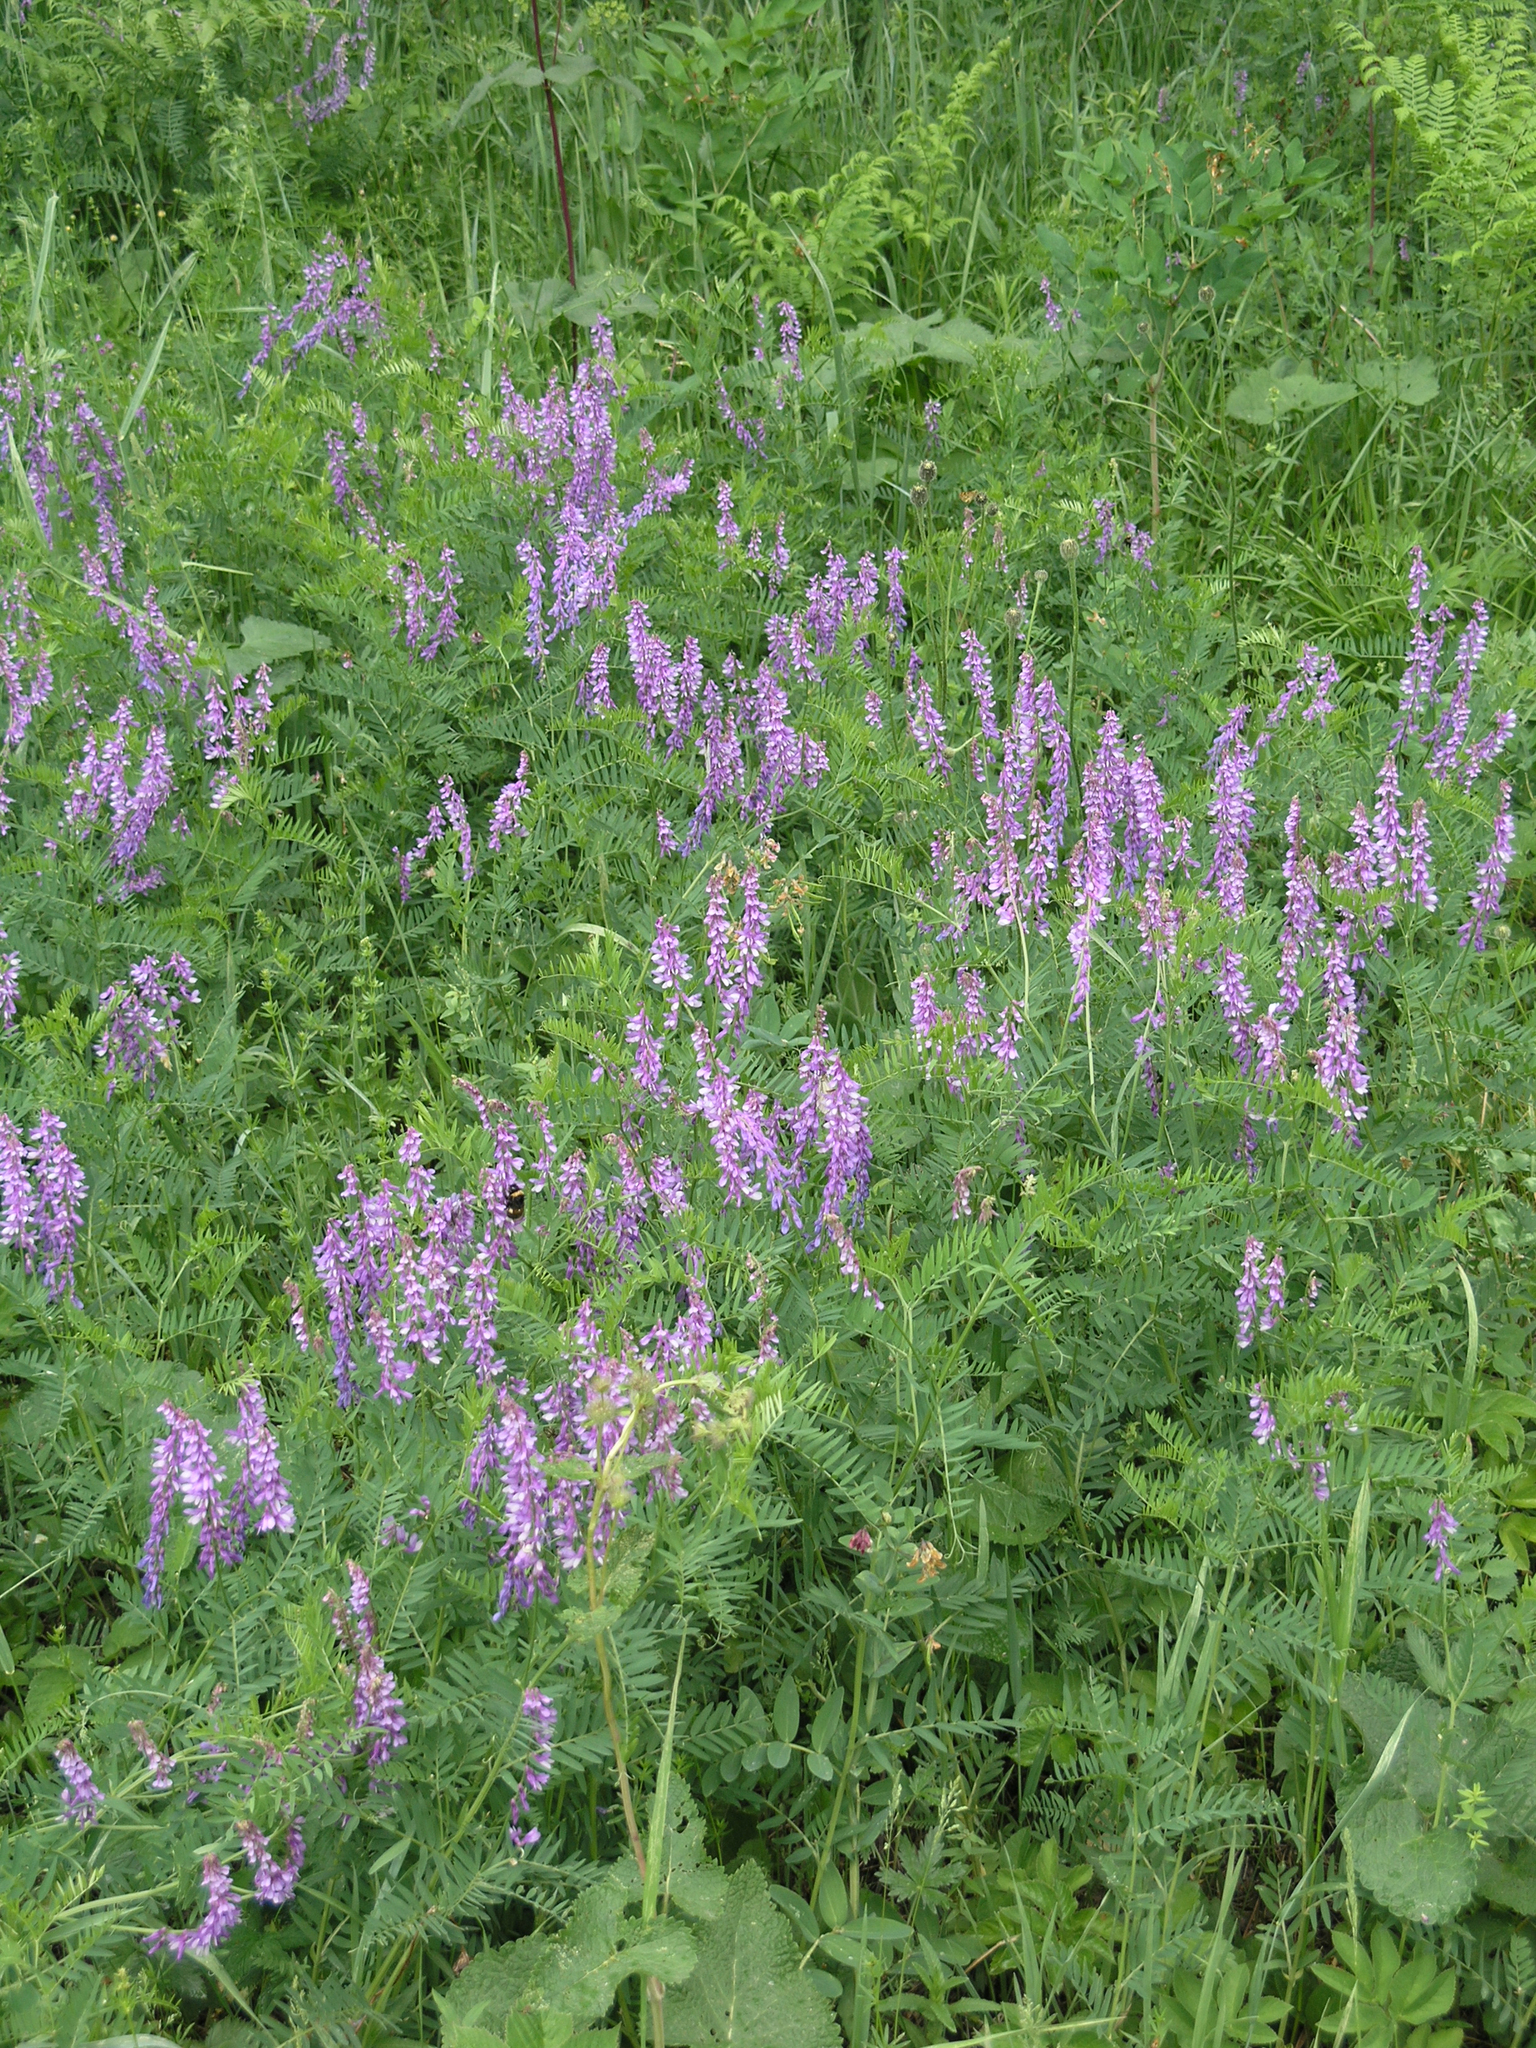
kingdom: Plantae
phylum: Tracheophyta
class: Magnoliopsida
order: Fabales
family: Fabaceae
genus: Vicia
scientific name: Vicia tenuifolia
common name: Fine-leaved vetch
